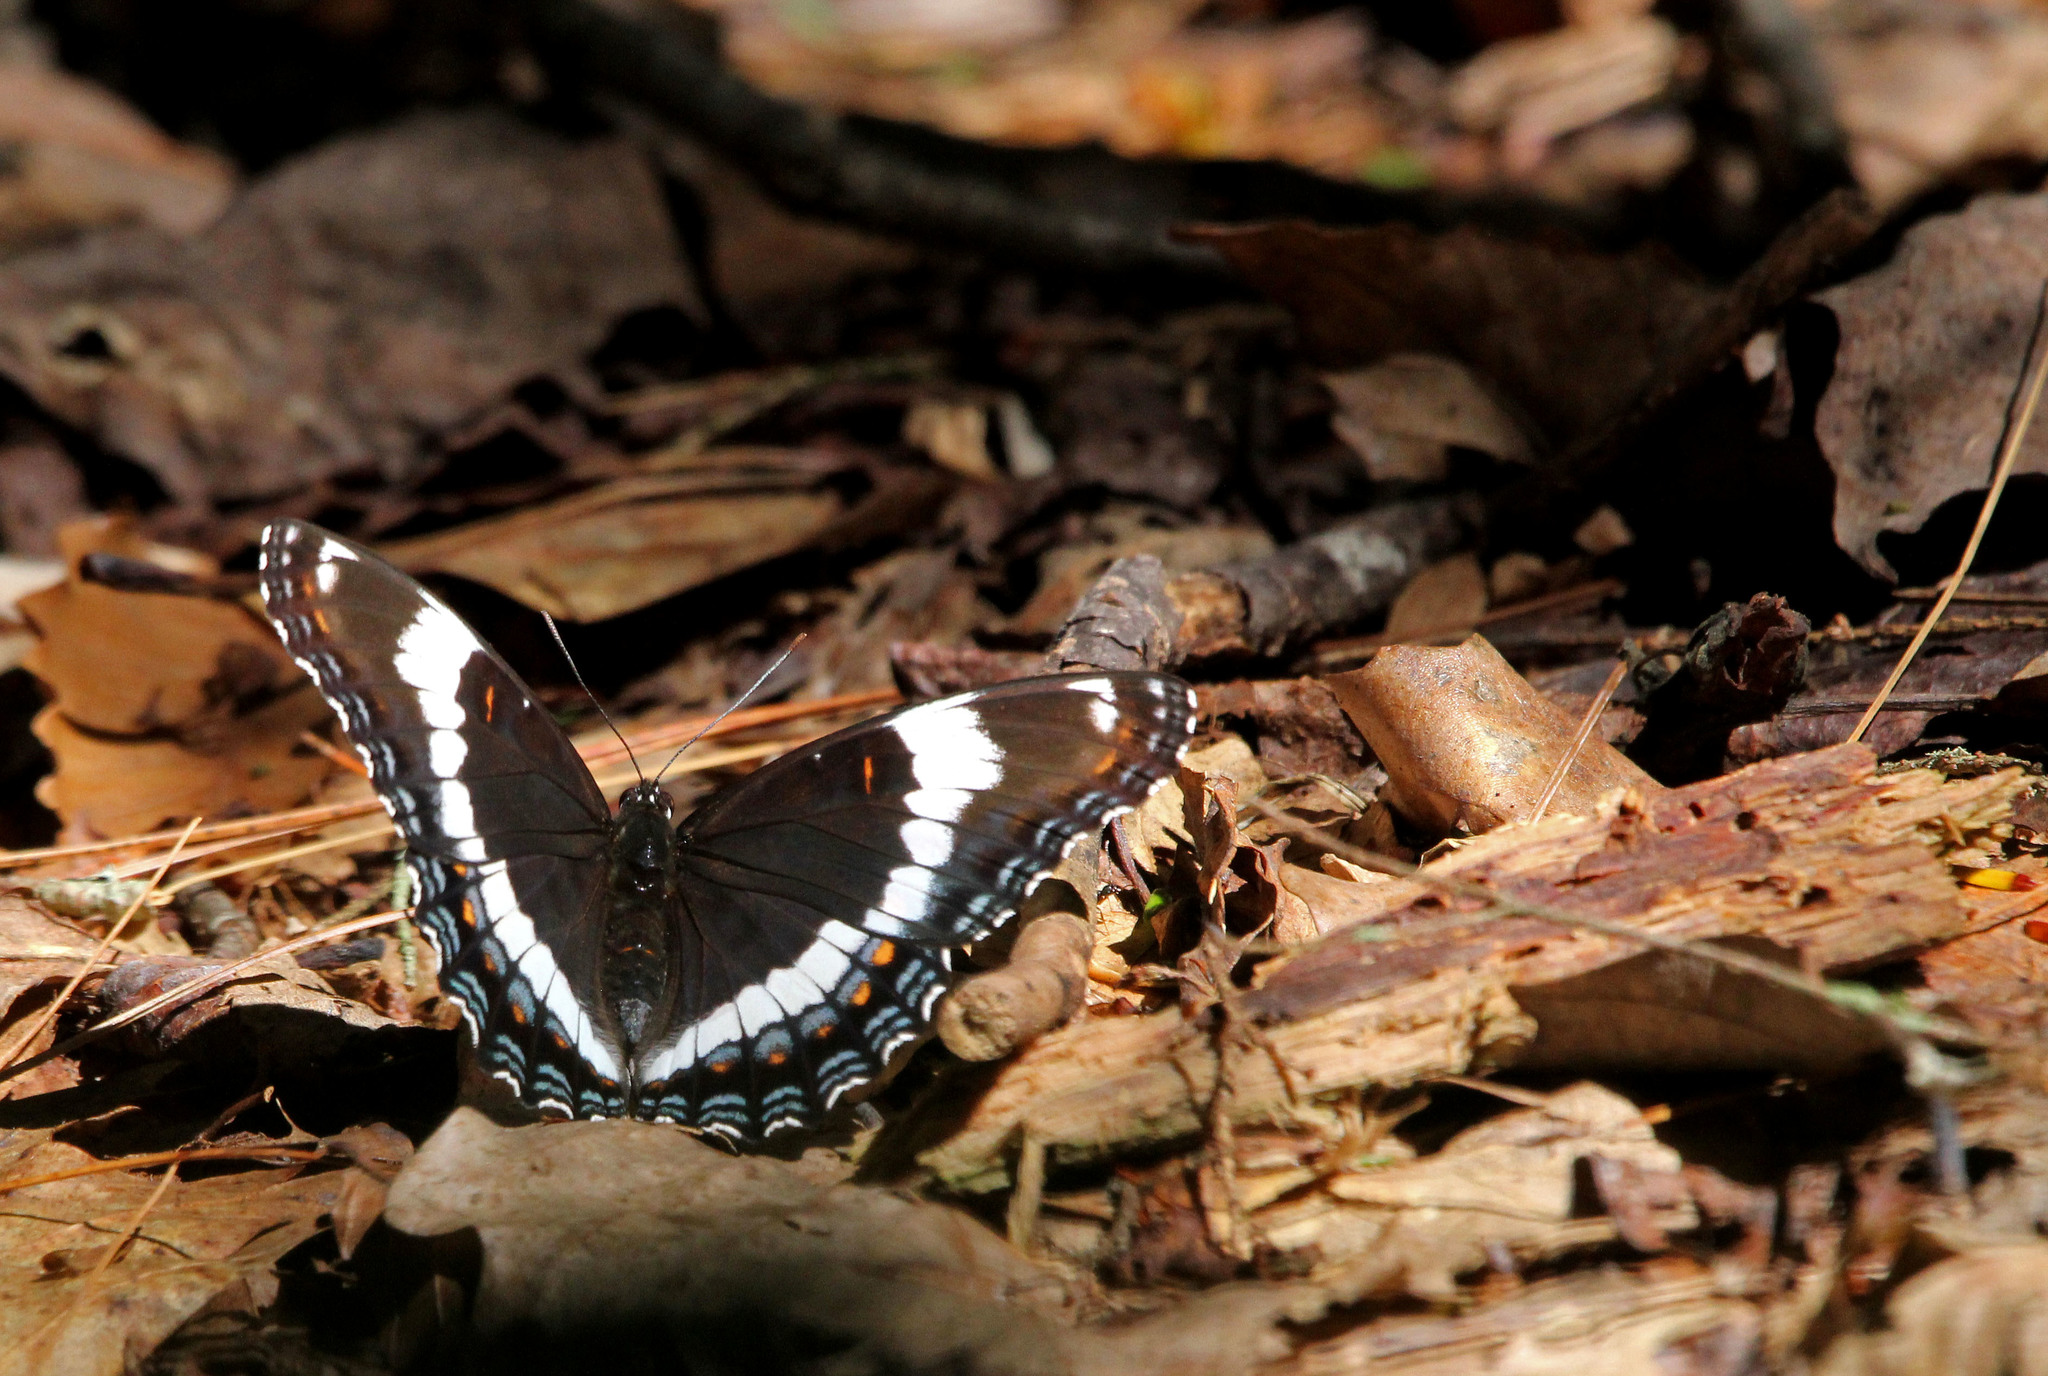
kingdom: Animalia
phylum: Arthropoda
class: Insecta
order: Lepidoptera
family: Nymphalidae
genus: Limenitis
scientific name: Limenitis arthemis
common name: Red-spotted admiral
